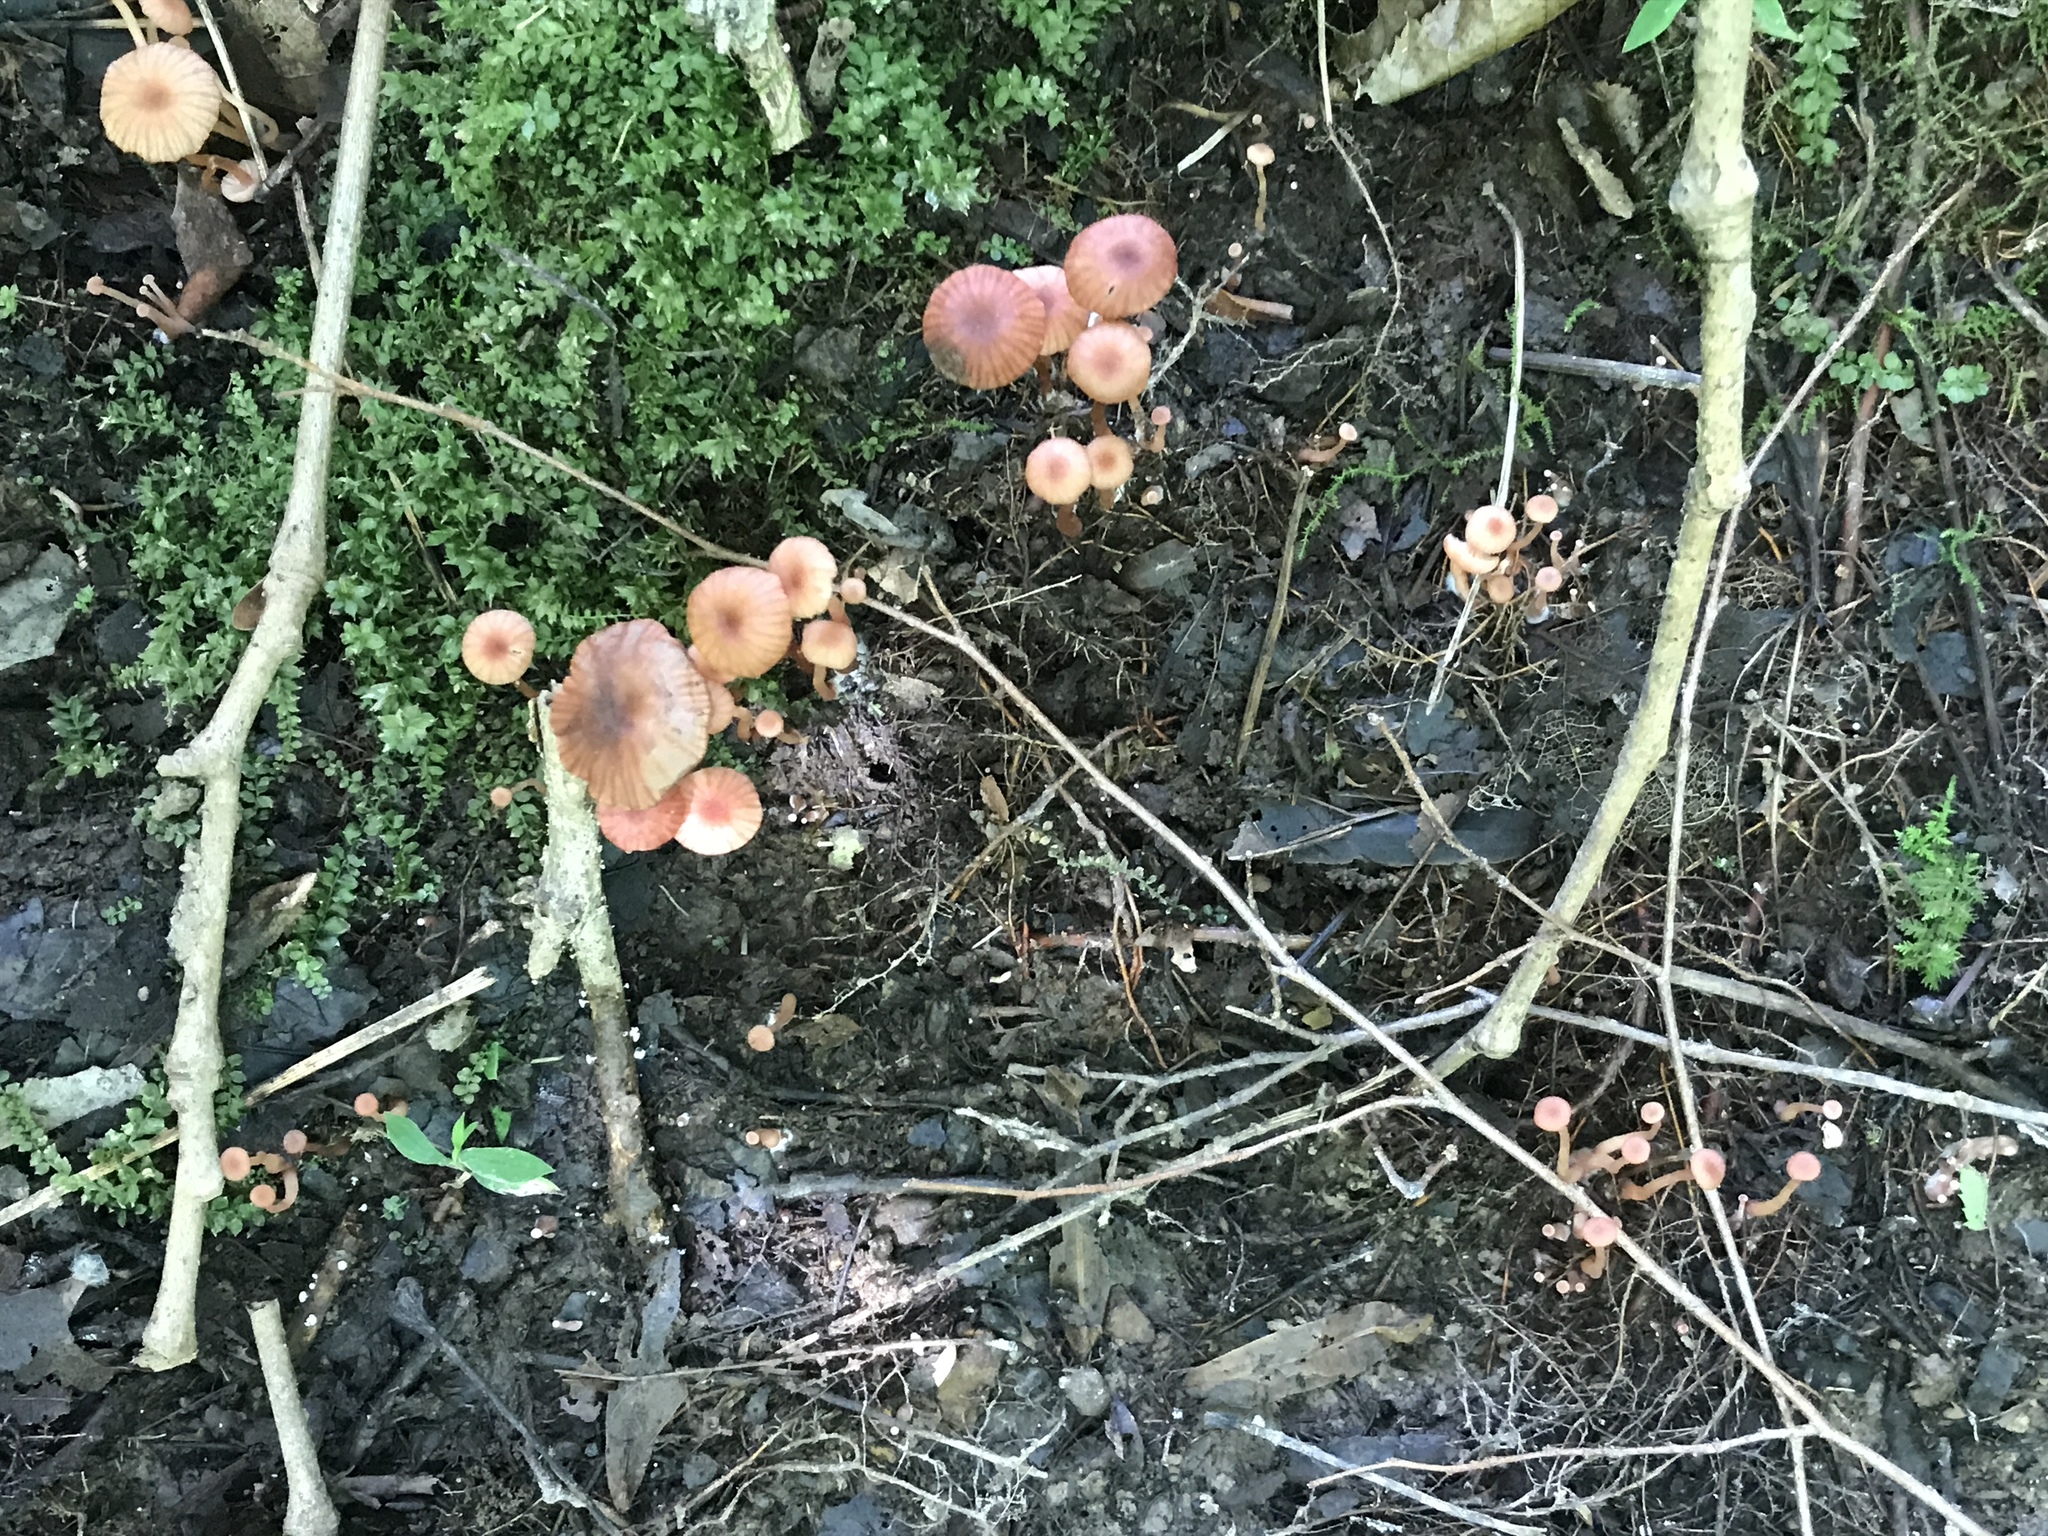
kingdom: Fungi
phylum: Basidiomycota
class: Agaricomycetes
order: Agaricales
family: Hydnangiaceae
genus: Laccaria
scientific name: Laccaria laccata
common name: Deceiver
